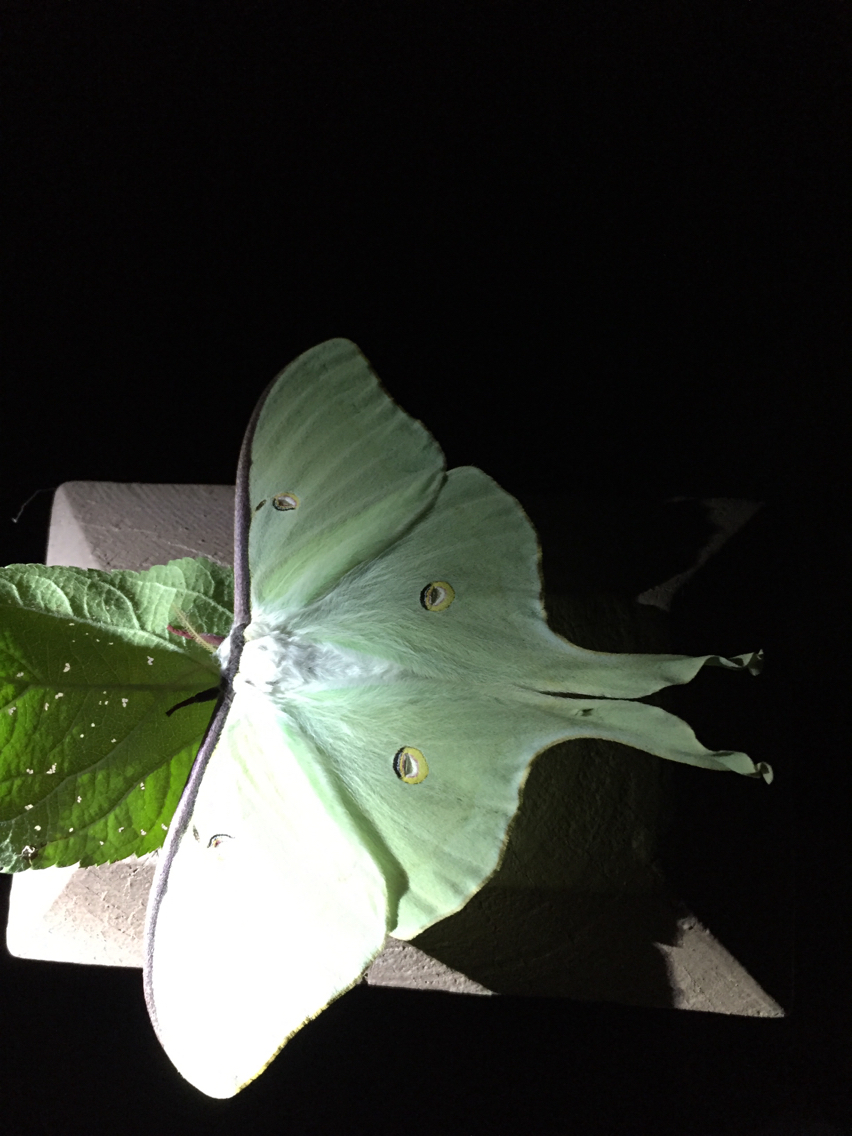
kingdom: Animalia
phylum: Arthropoda
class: Insecta
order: Lepidoptera
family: Saturniidae
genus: Actias
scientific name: Actias luna
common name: Luna moth
